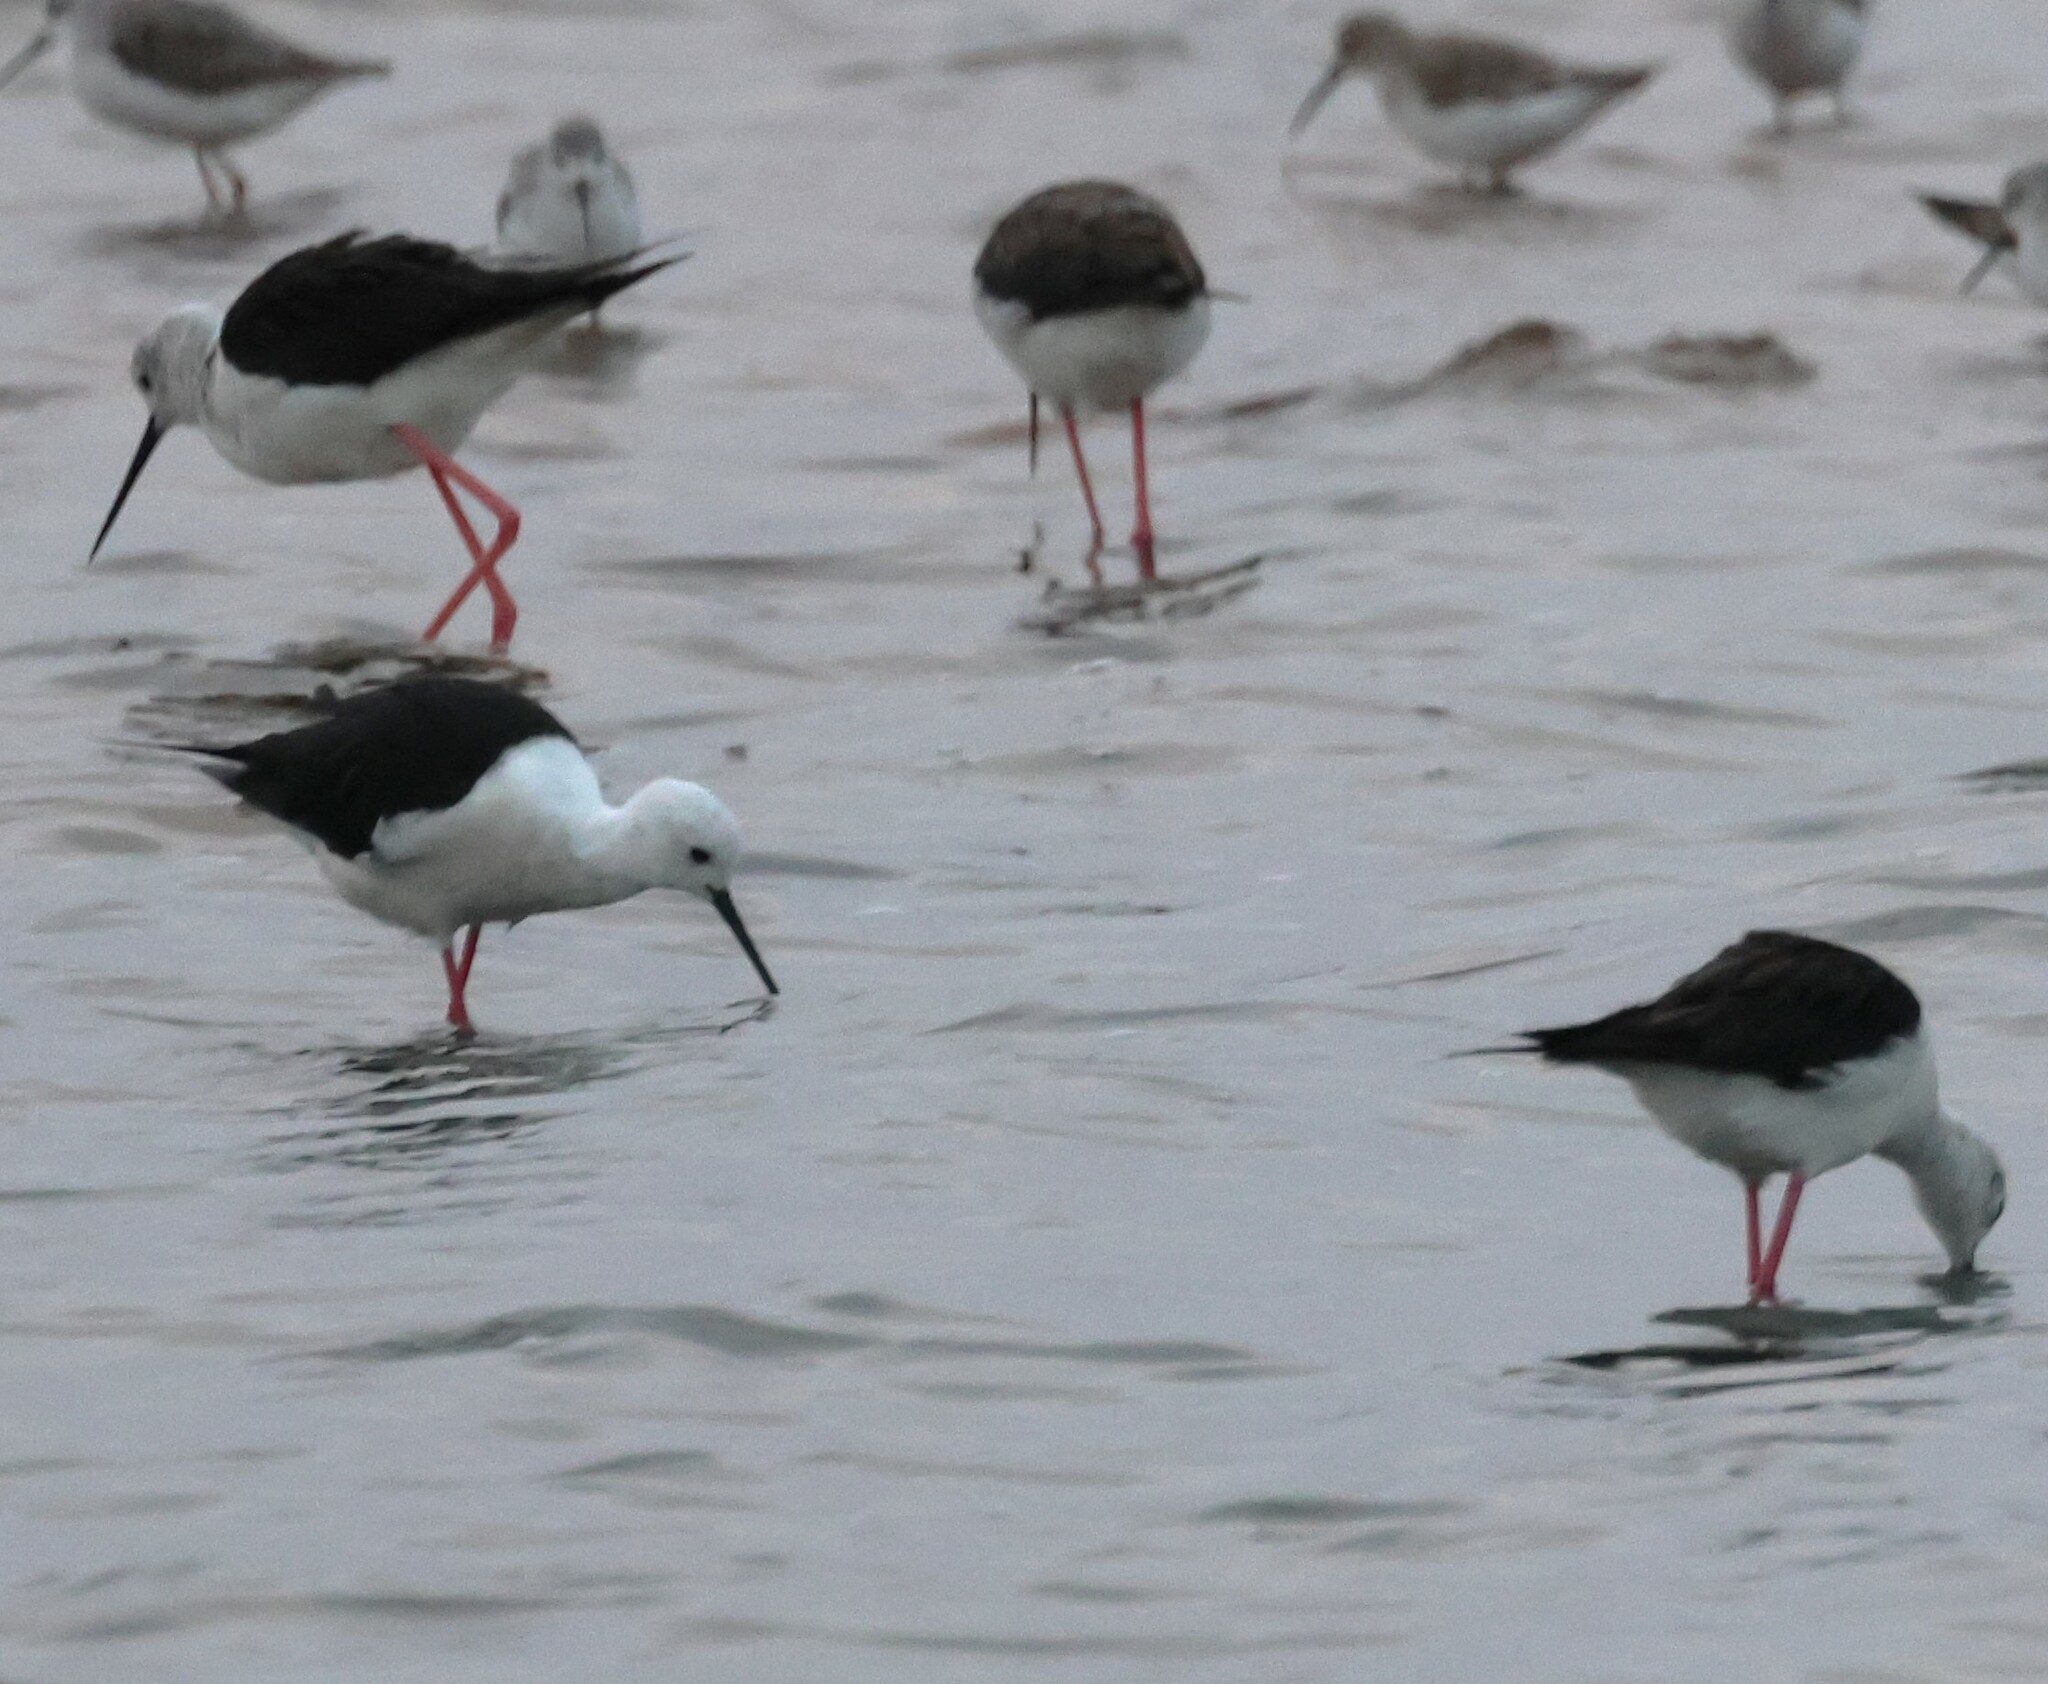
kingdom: Animalia
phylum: Chordata
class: Aves
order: Charadriiformes
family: Recurvirostridae
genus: Himantopus
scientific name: Himantopus himantopus
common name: Black-winged stilt
